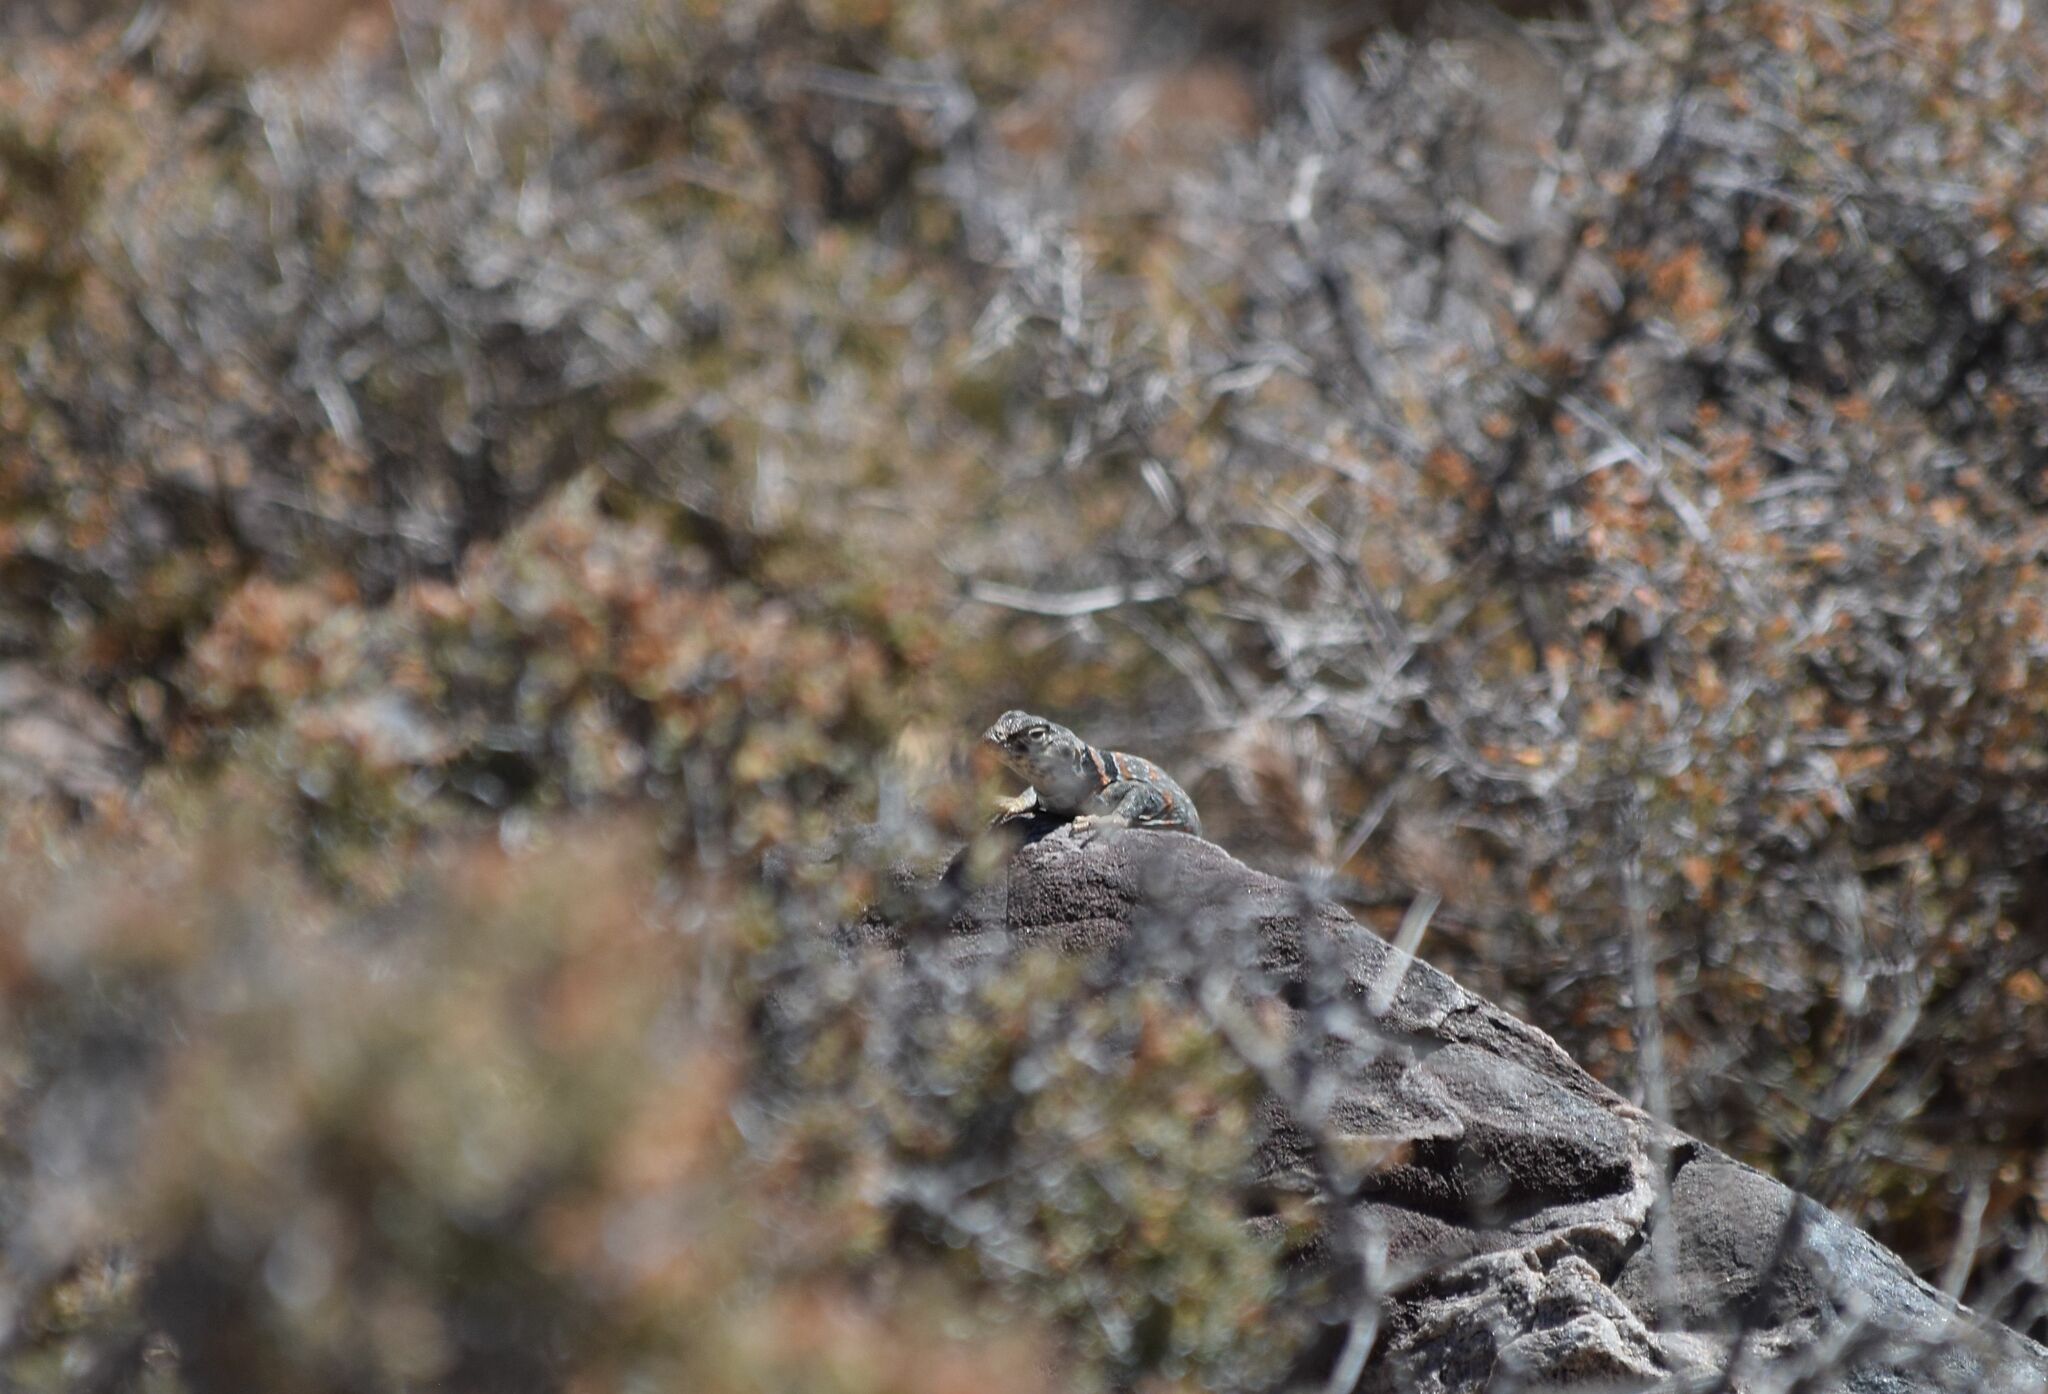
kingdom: Animalia
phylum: Chordata
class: Squamata
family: Crotaphytidae
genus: Crotaphytus
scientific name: Crotaphytus bicinctores
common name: Mojave black-collared lizard
